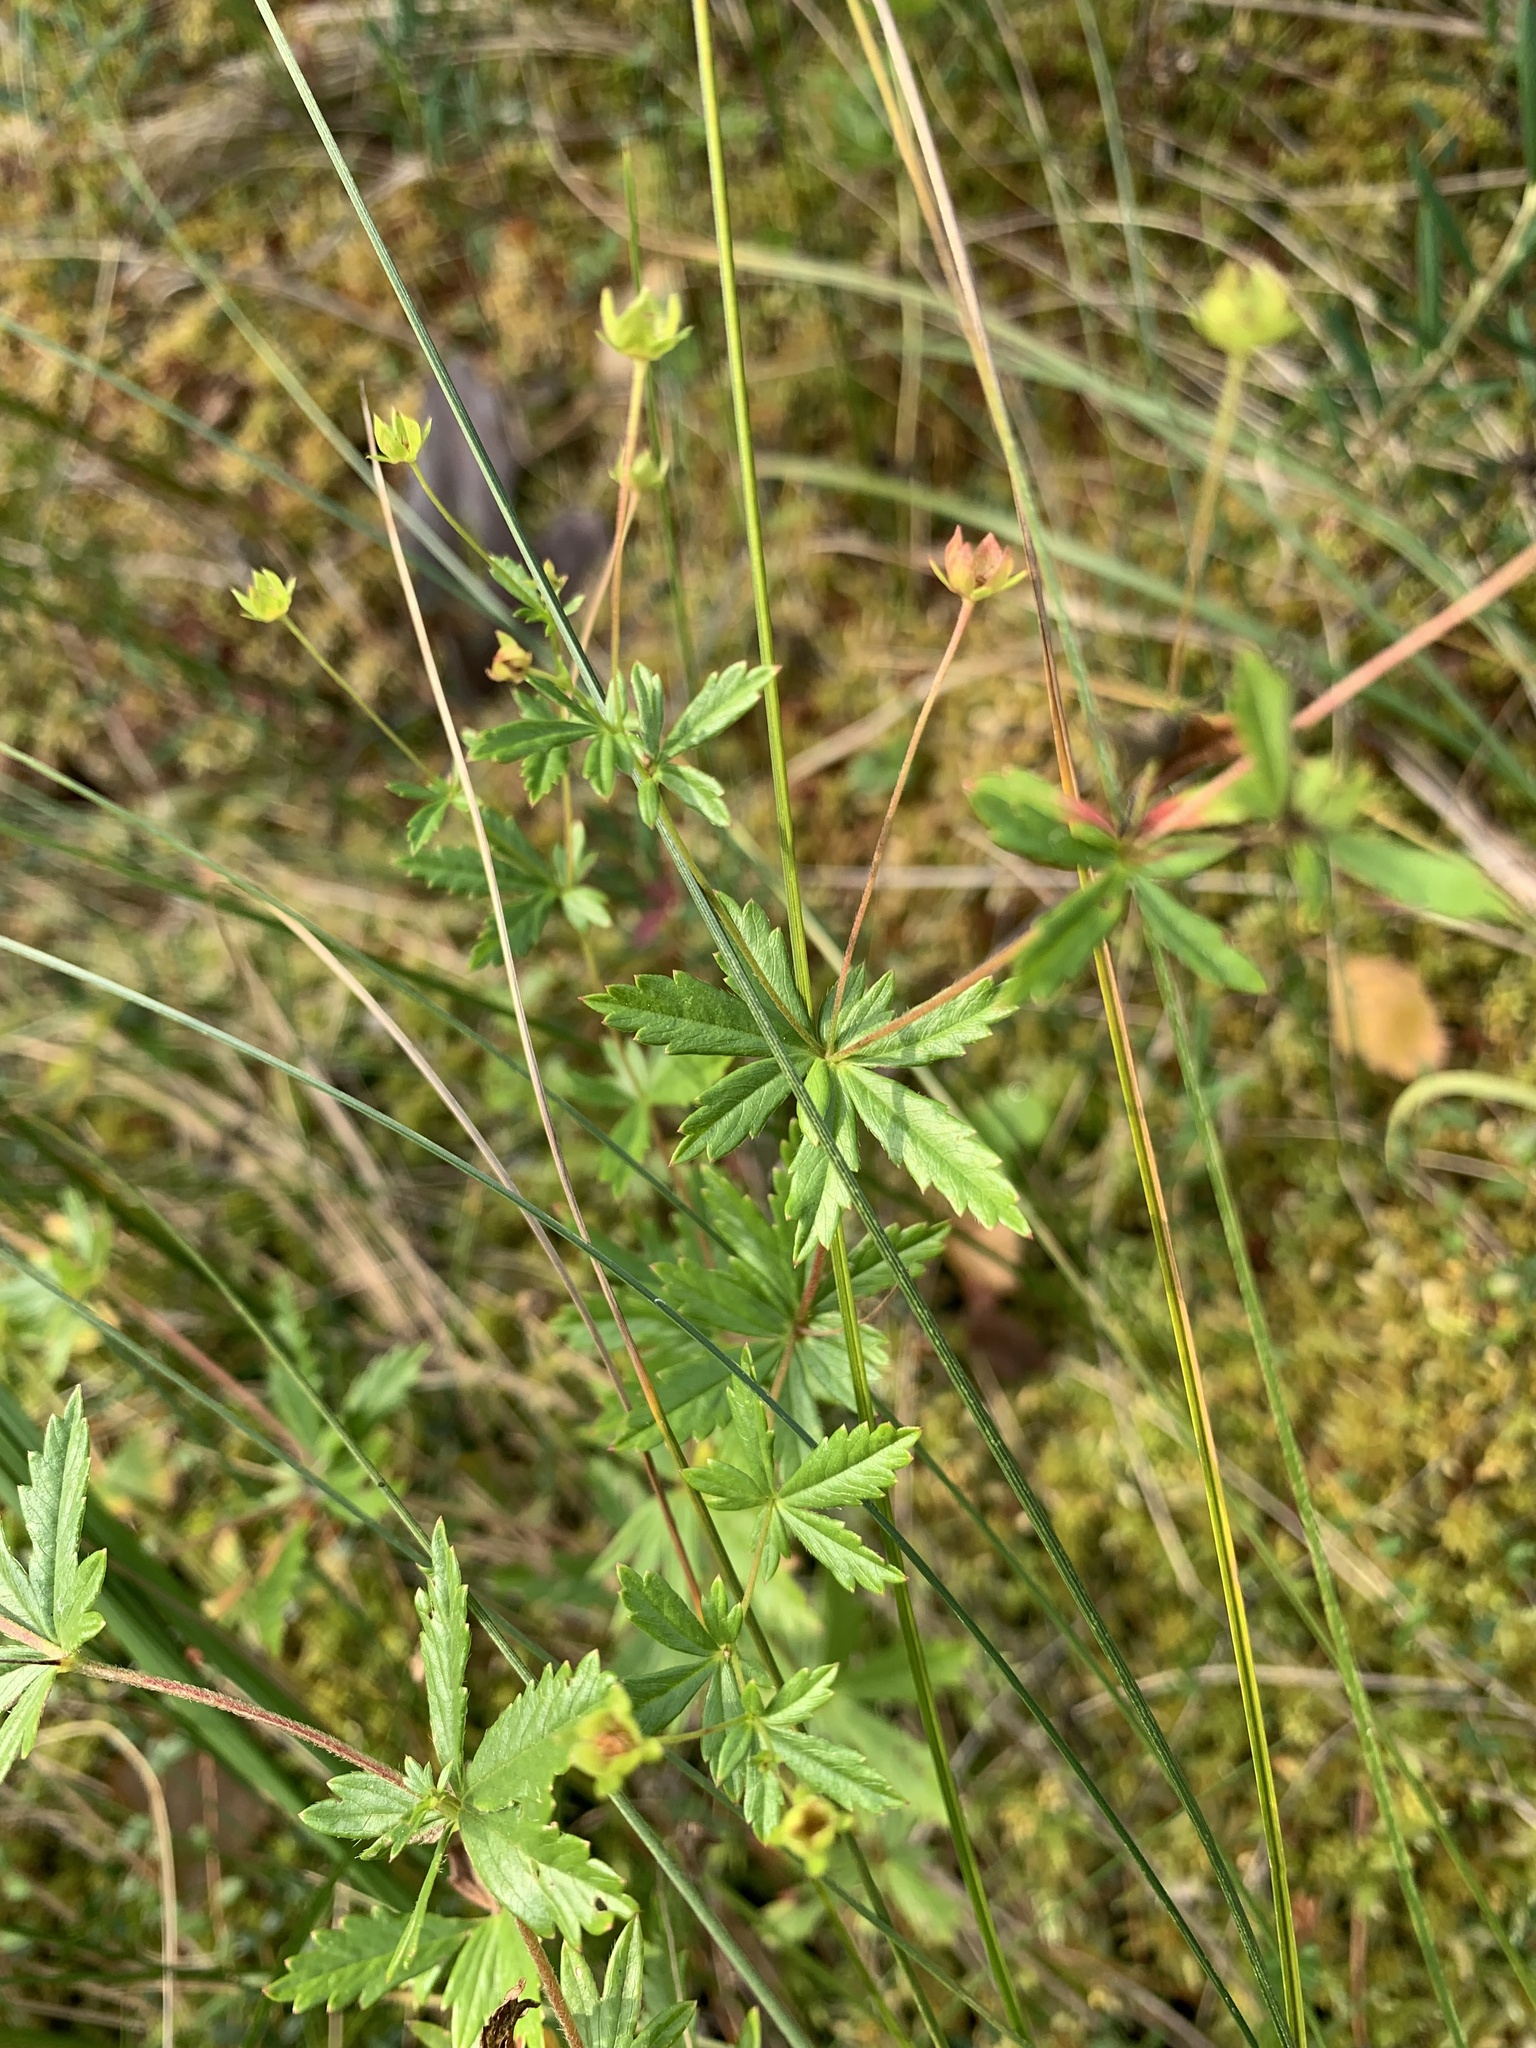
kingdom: Plantae
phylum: Tracheophyta
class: Magnoliopsida
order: Rosales
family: Rosaceae
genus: Potentilla
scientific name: Potentilla erecta
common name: Tormentil
